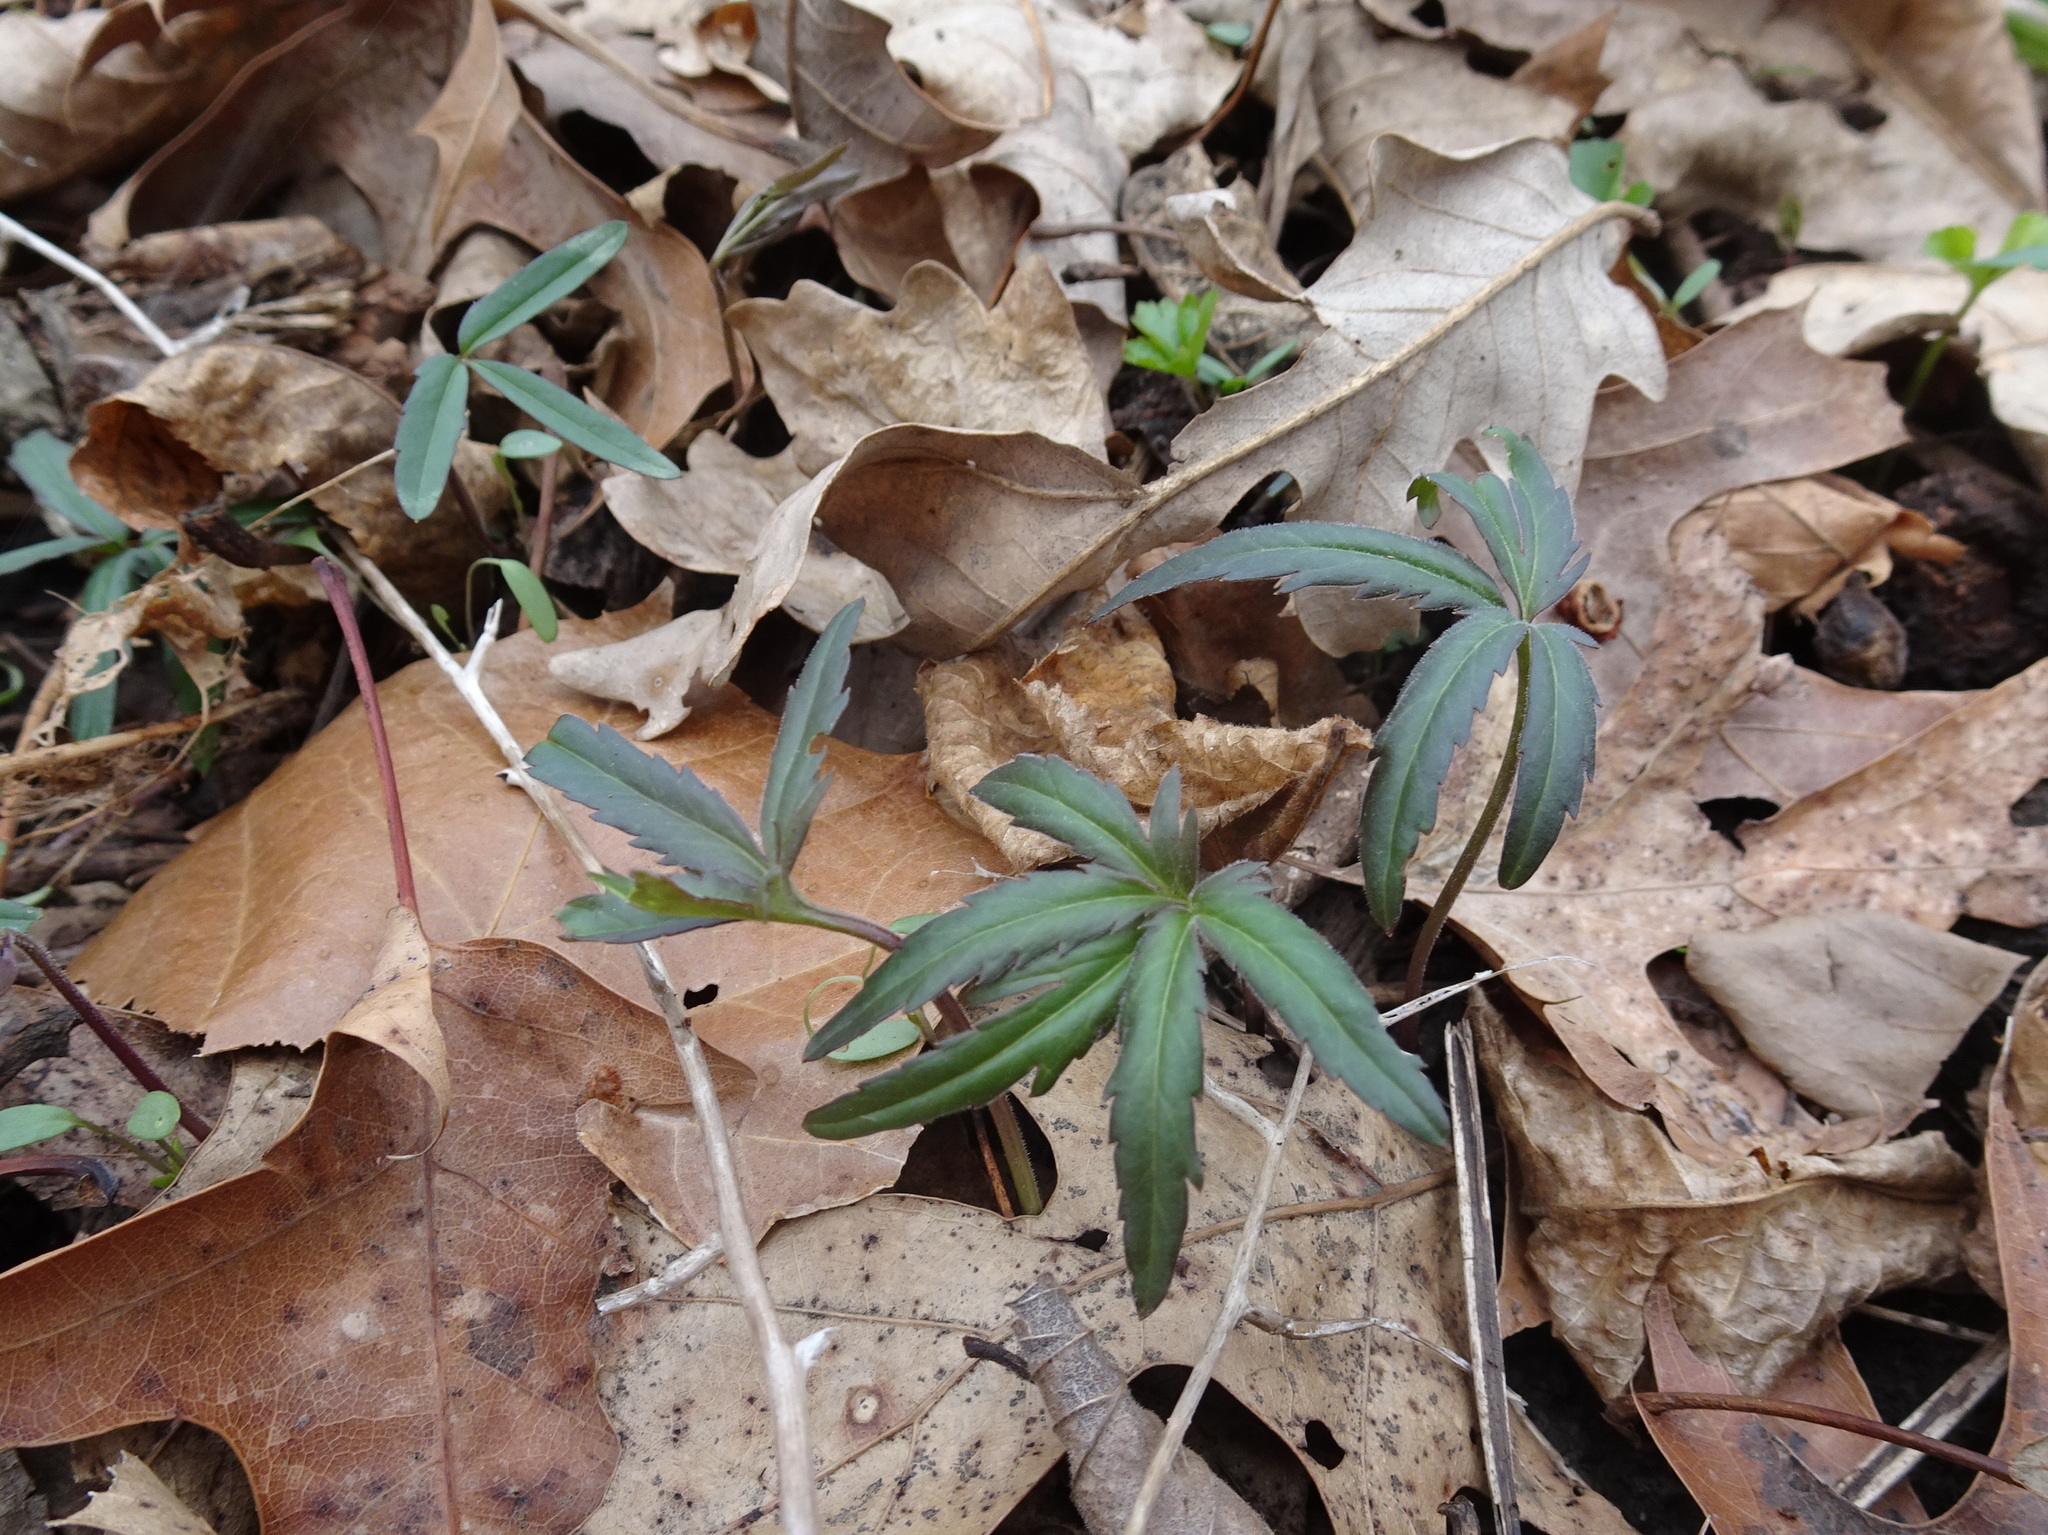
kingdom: Plantae
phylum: Tracheophyta
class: Magnoliopsida
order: Brassicales
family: Brassicaceae
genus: Cardamine
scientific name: Cardamine concatenata
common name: Cut-leaf toothcup
